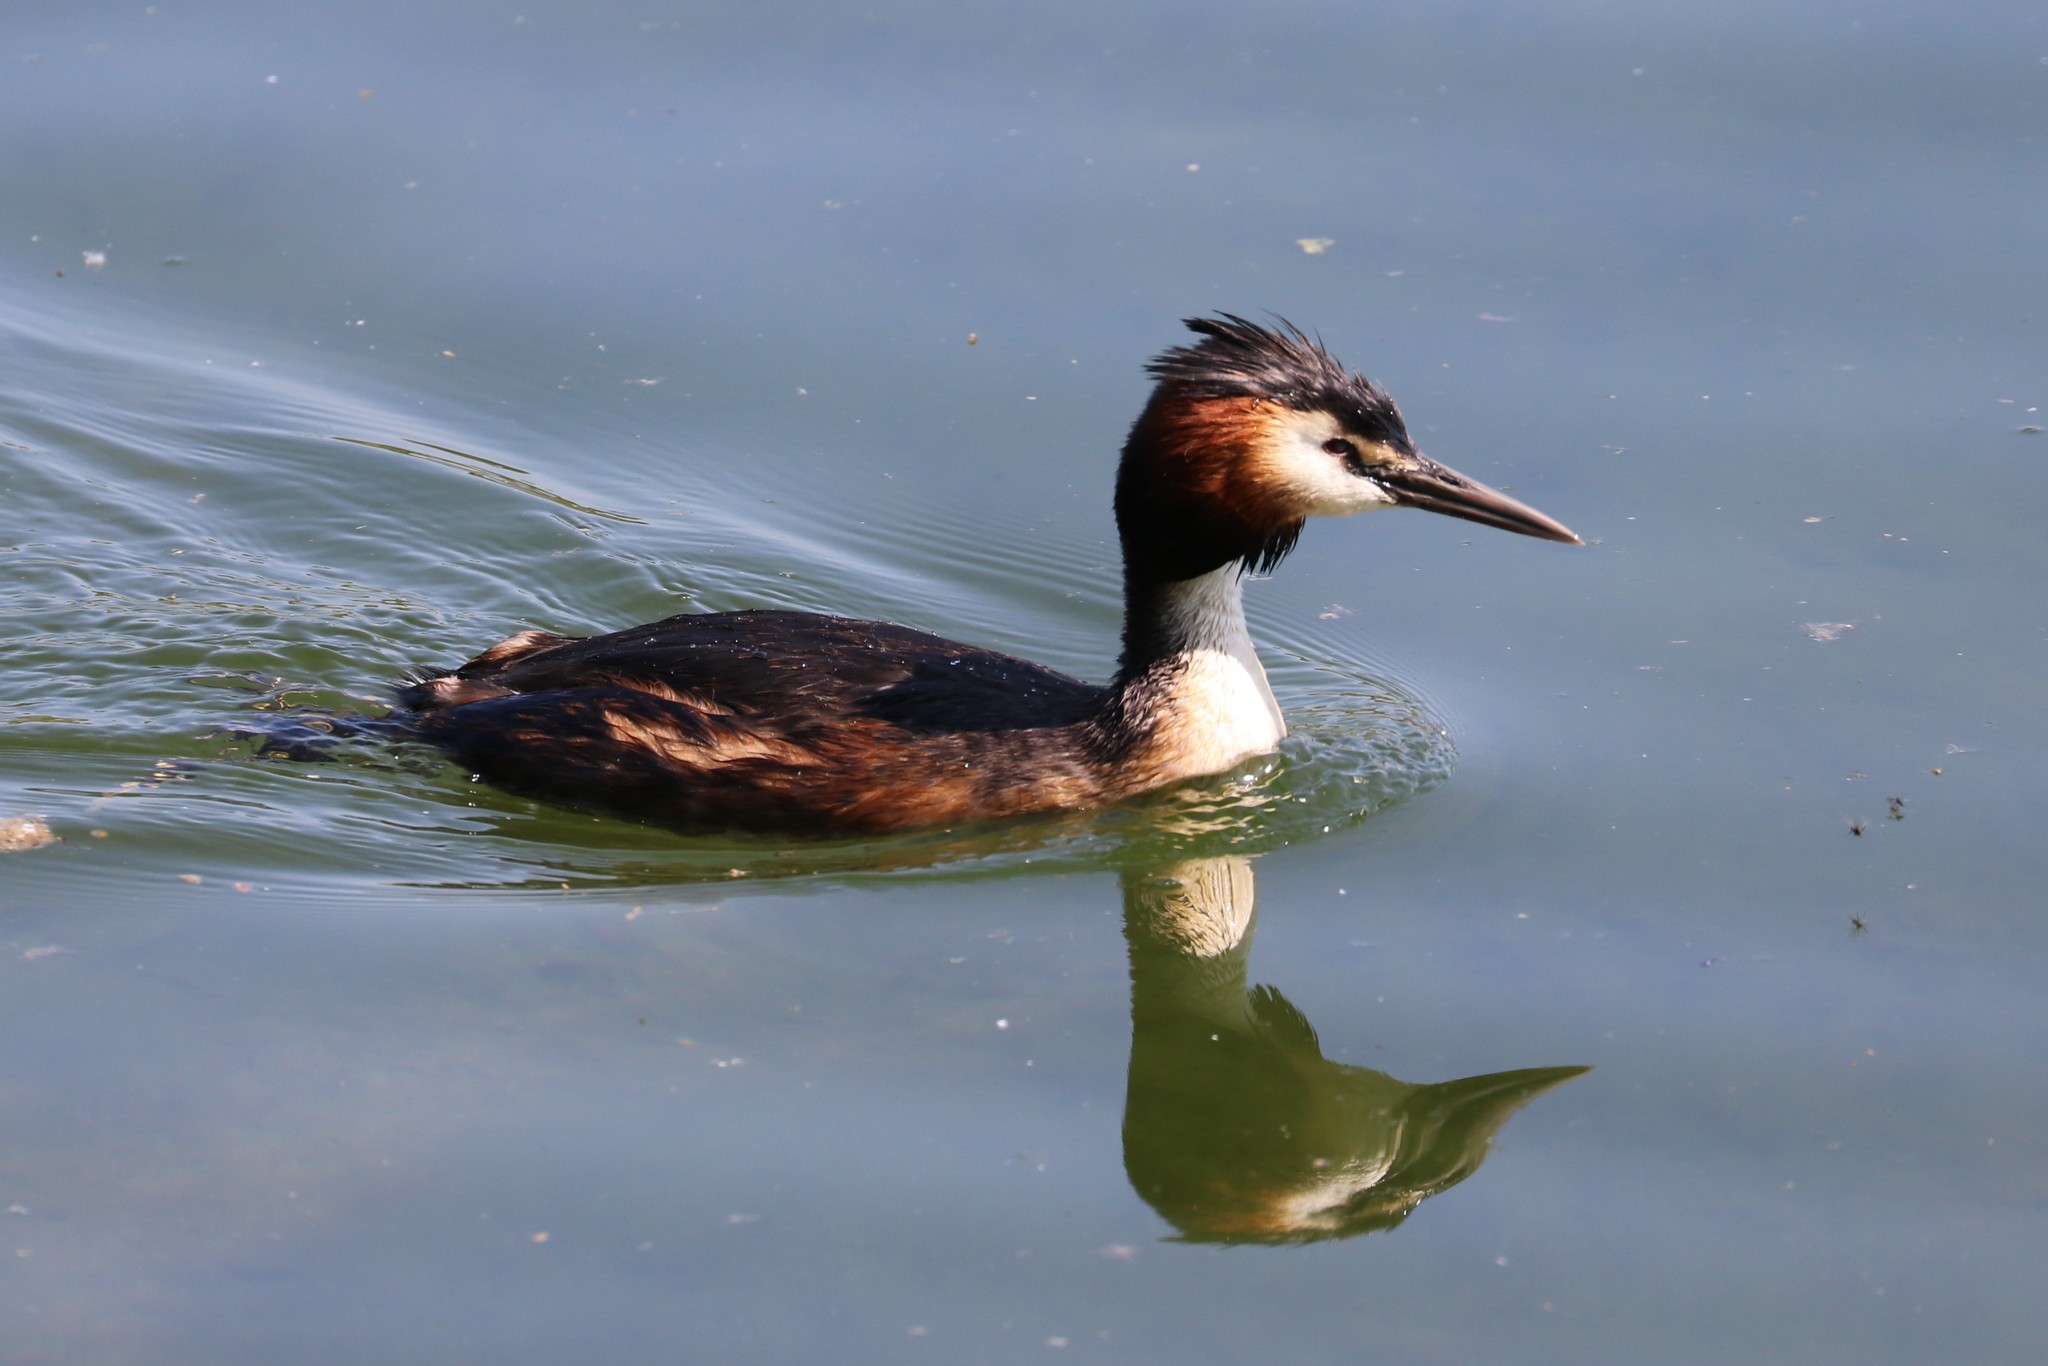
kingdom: Animalia
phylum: Chordata
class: Aves
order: Podicipediformes
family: Podicipedidae
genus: Podiceps
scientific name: Podiceps cristatus
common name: Great crested grebe
